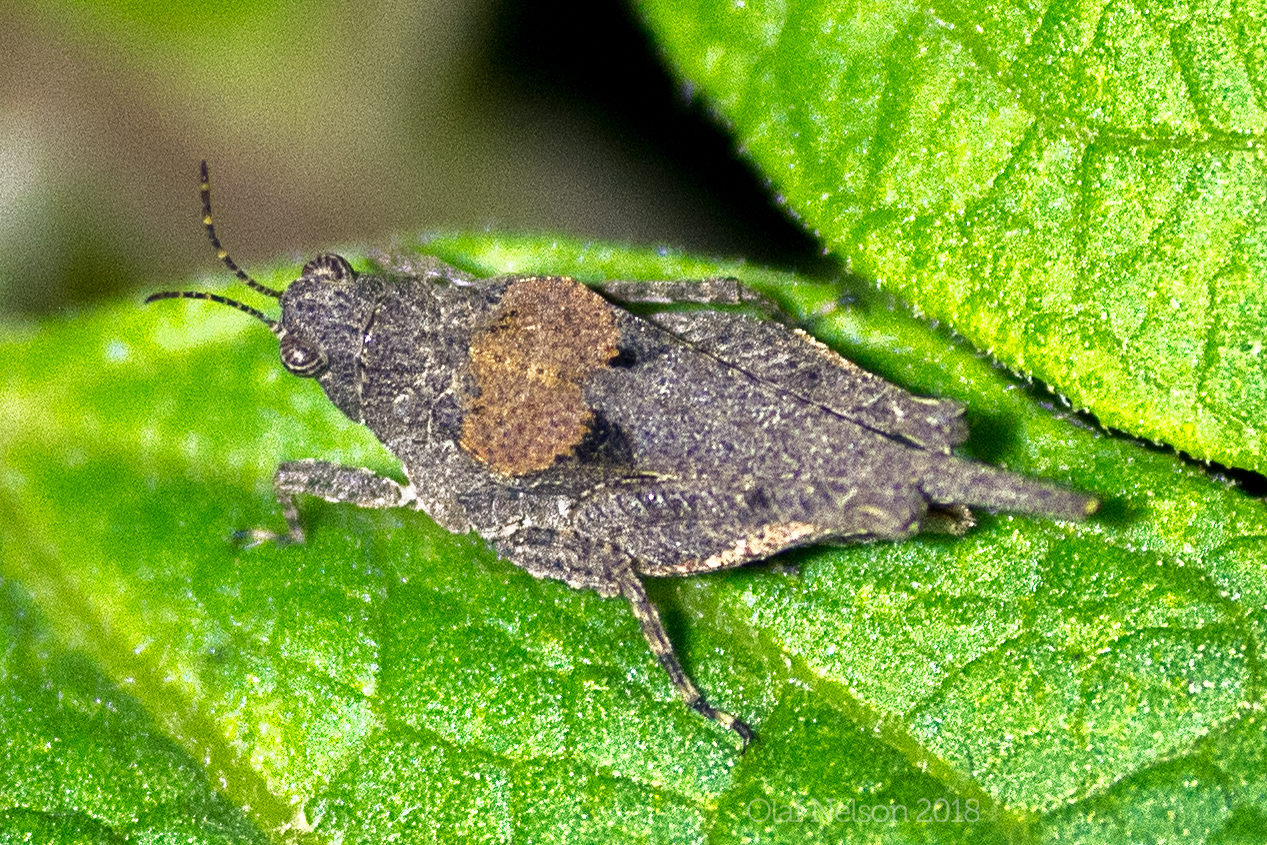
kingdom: Animalia
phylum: Arthropoda
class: Insecta
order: Orthoptera
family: Tetrigidae
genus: Tetrix
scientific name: Tetrix arenosa
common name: Ornate pygmy grasshopper
